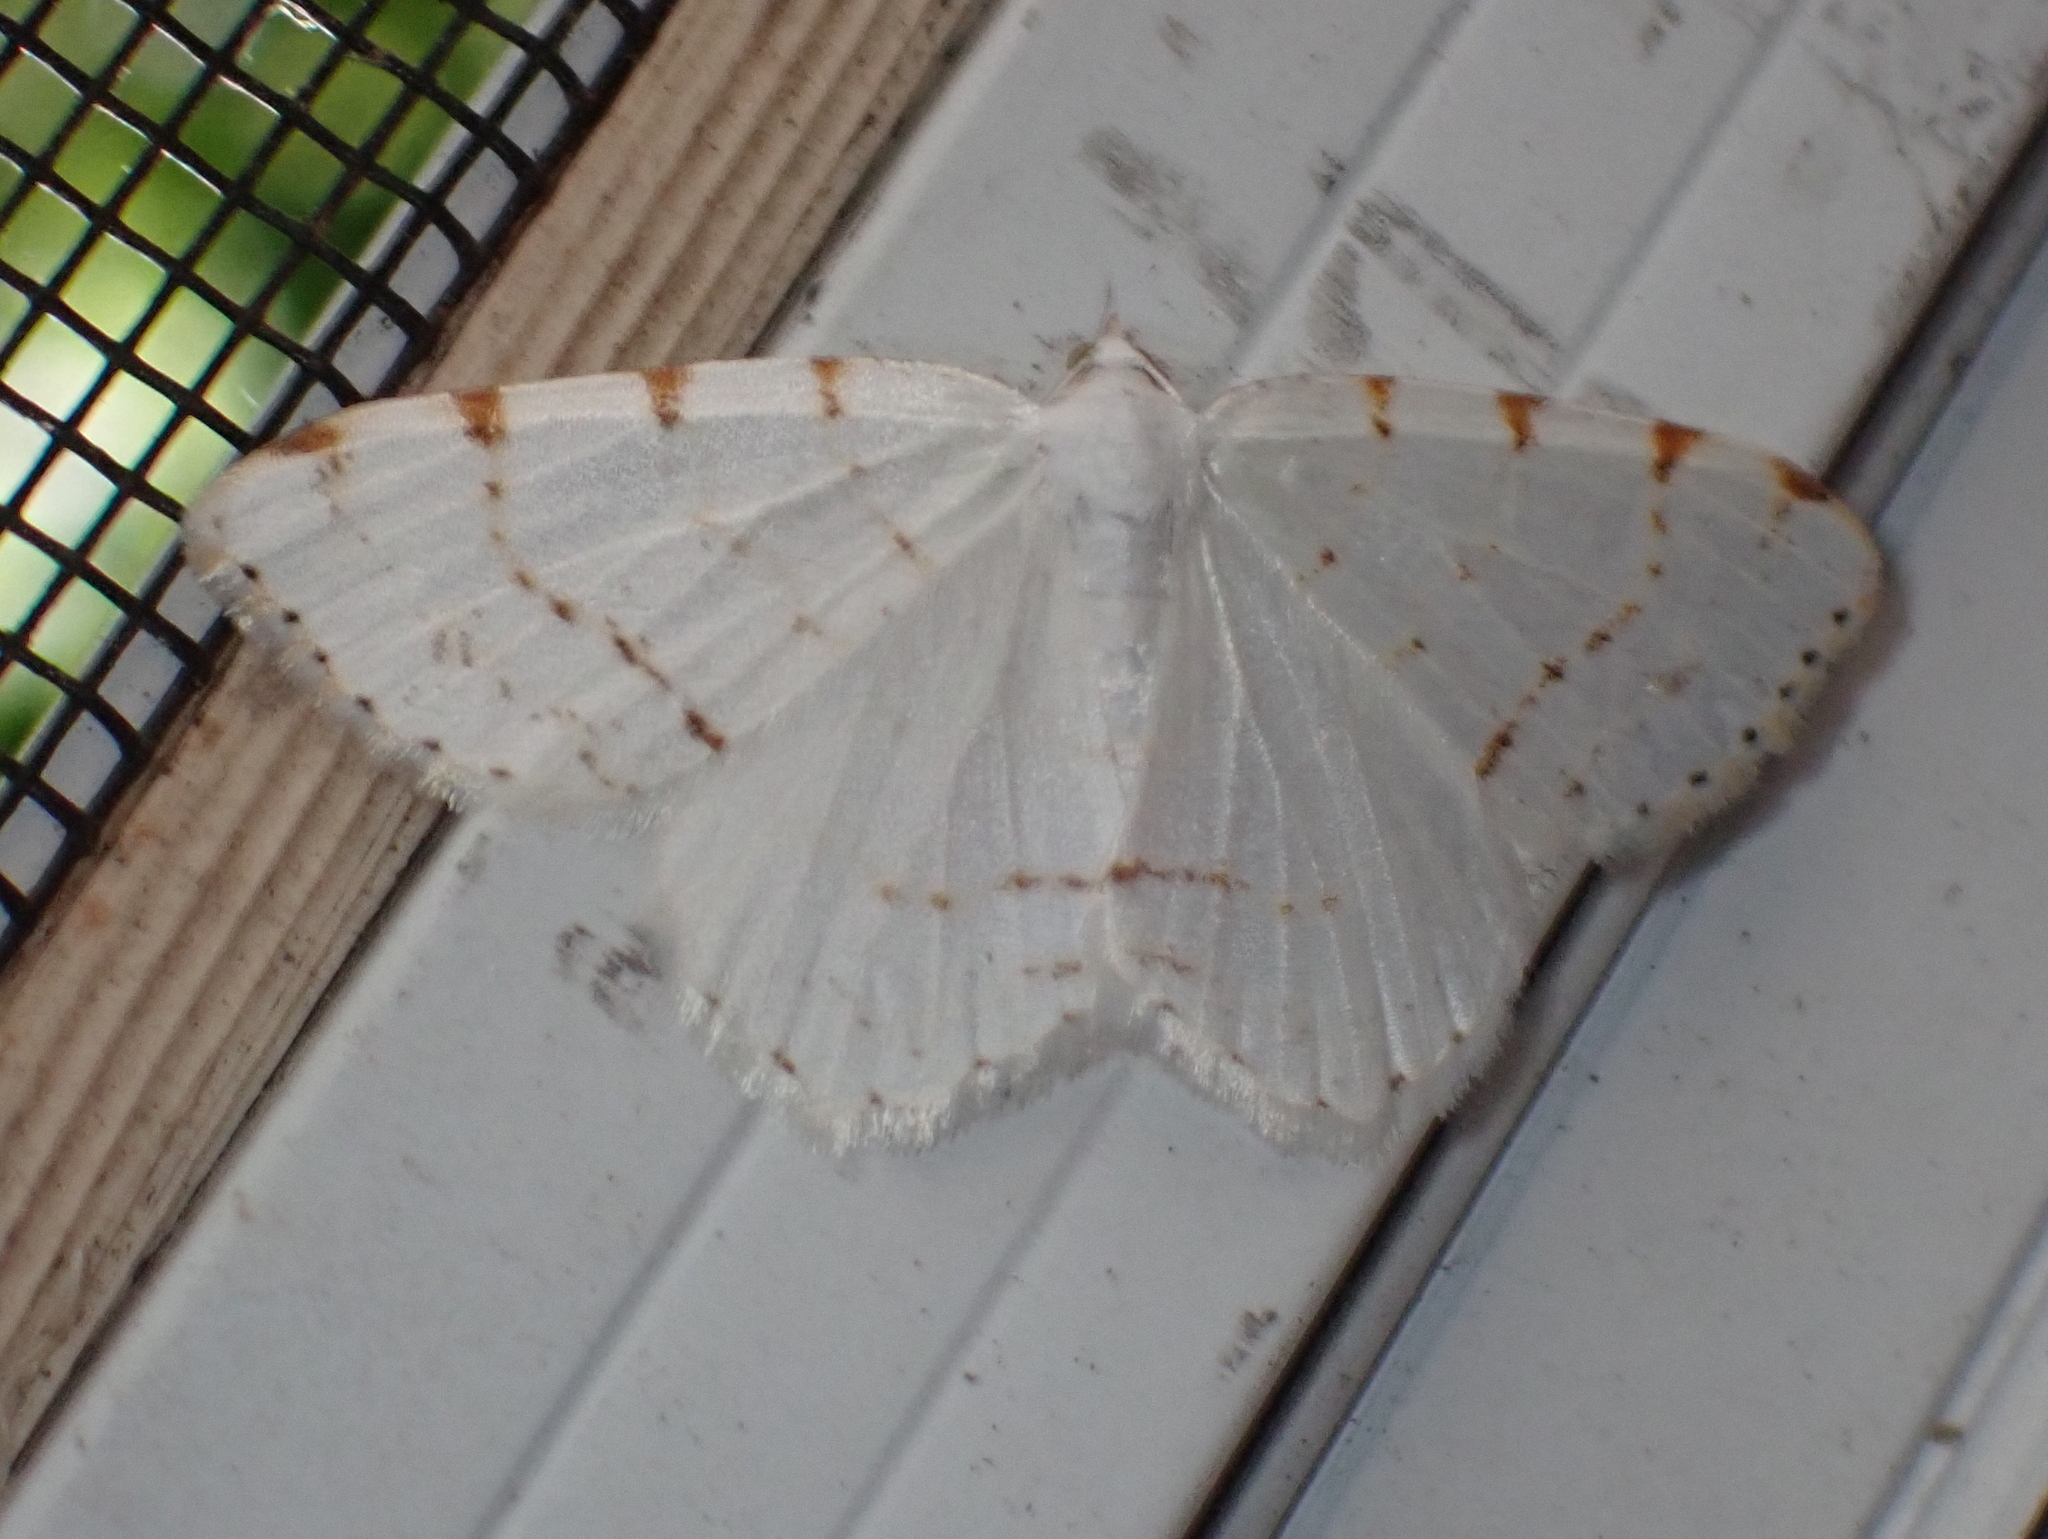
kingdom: Animalia
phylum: Arthropoda
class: Insecta
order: Lepidoptera
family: Geometridae
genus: Macaria
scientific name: Macaria pustularia
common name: Lesser maple spanworm moth
